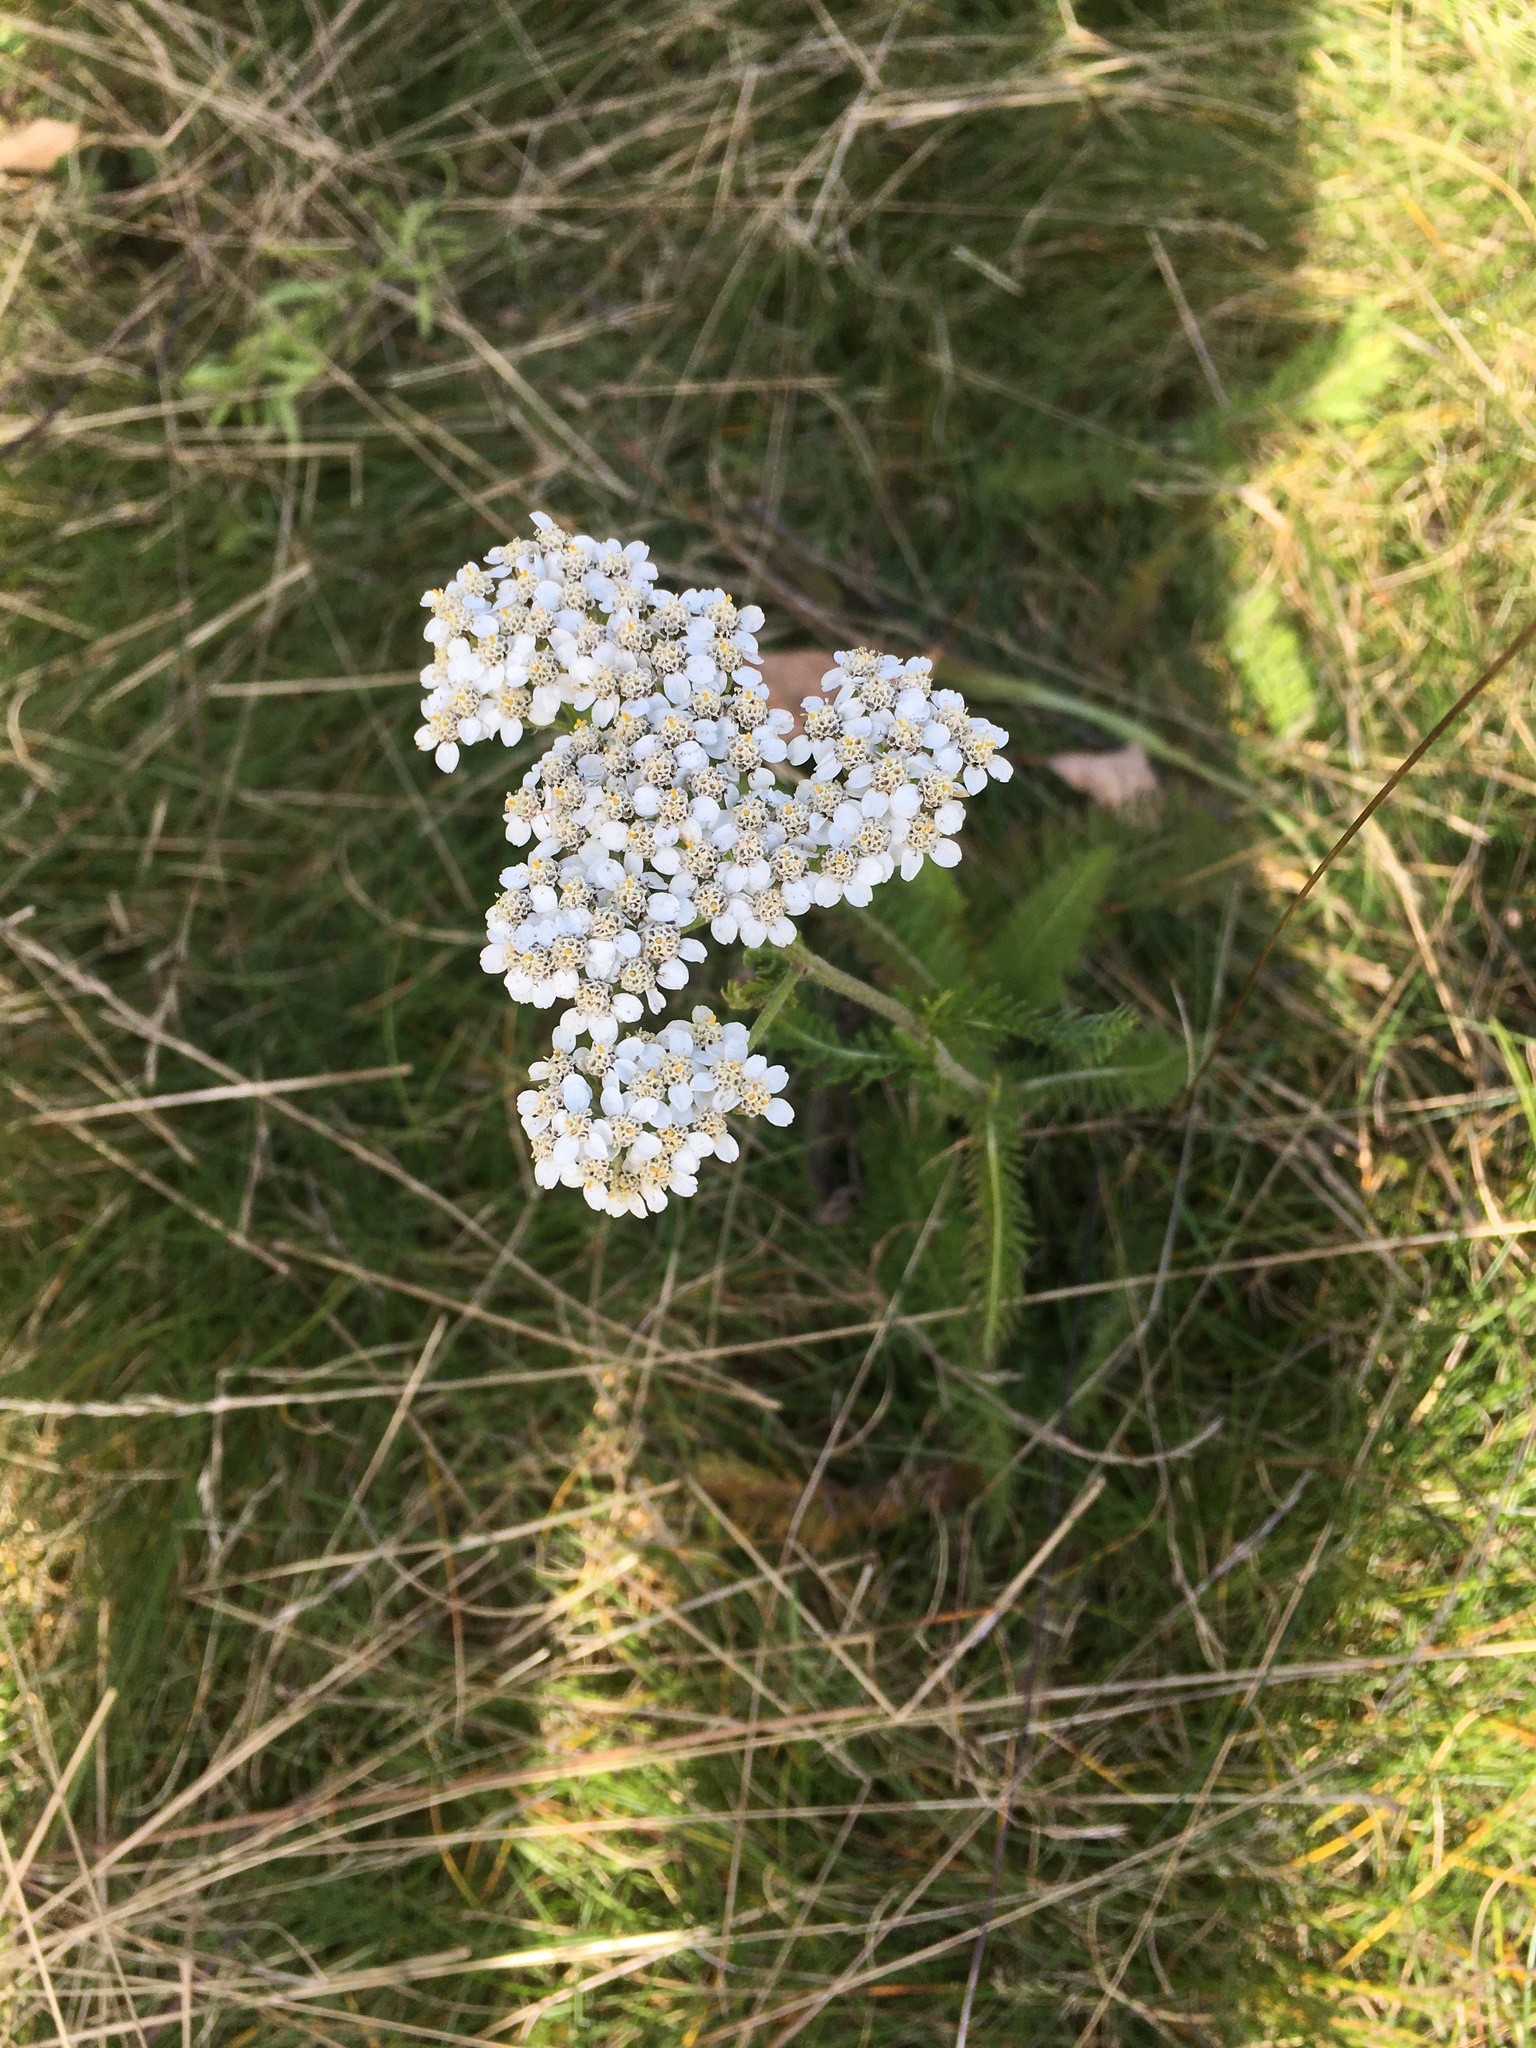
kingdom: Plantae
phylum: Tracheophyta
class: Magnoliopsida
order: Asterales
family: Asteraceae
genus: Achillea
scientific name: Achillea millefolium
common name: Yarrow
